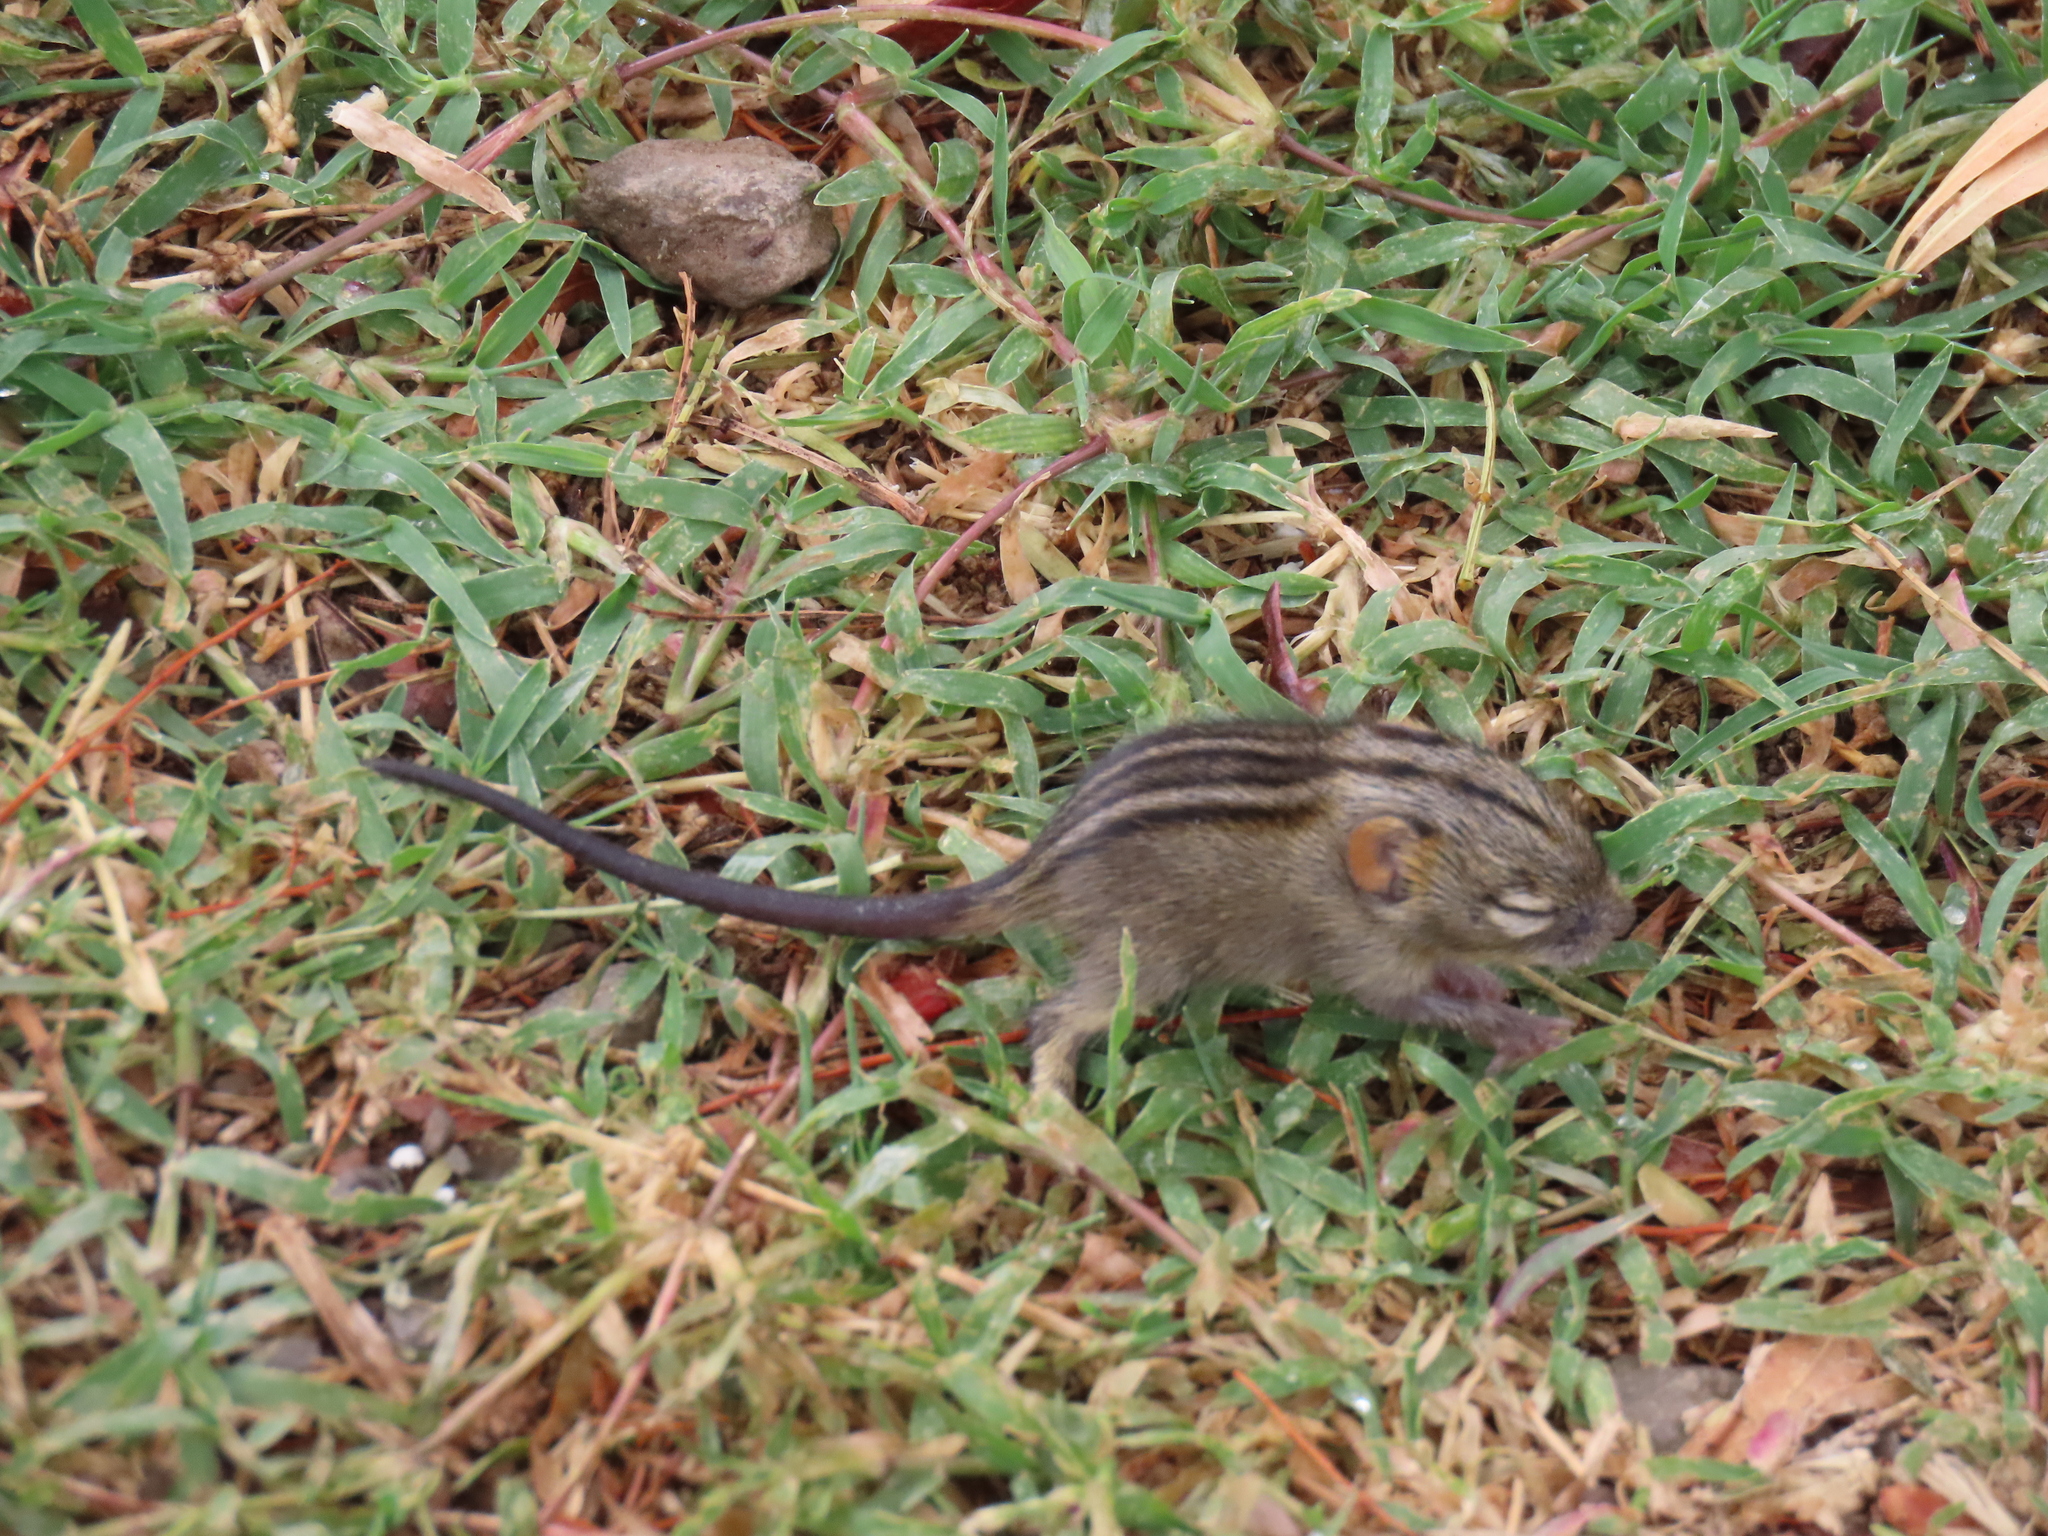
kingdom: Animalia
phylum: Chordata
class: Mammalia
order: Rodentia
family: Muridae
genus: Rhabdomys
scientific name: Rhabdomys pumilio
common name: Xeric four-striped grass rat
